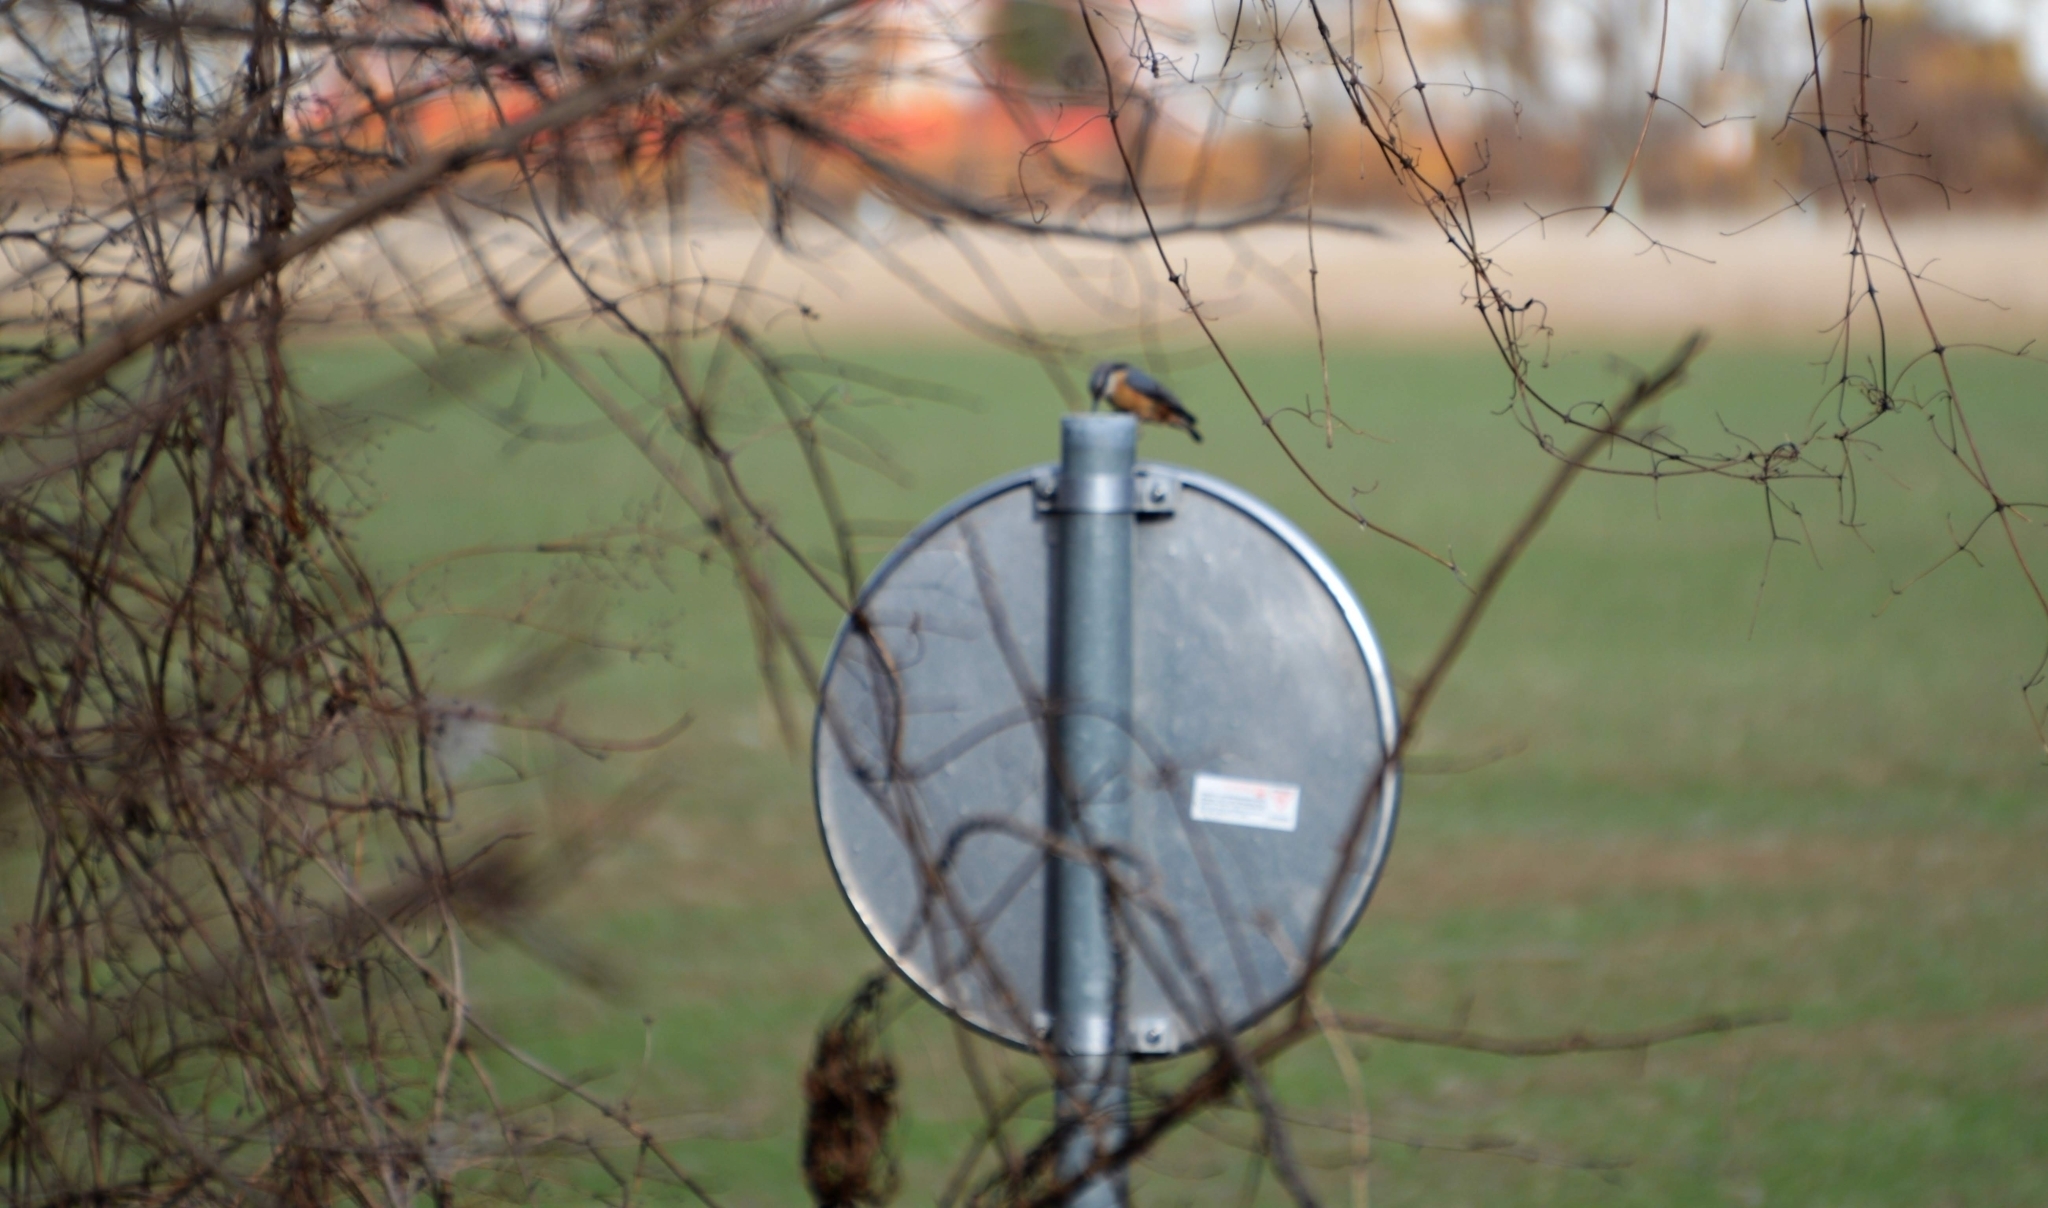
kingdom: Animalia
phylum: Chordata
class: Aves
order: Passeriformes
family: Sittidae
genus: Sitta
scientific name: Sitta europaea
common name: Eurasian nuthatch
